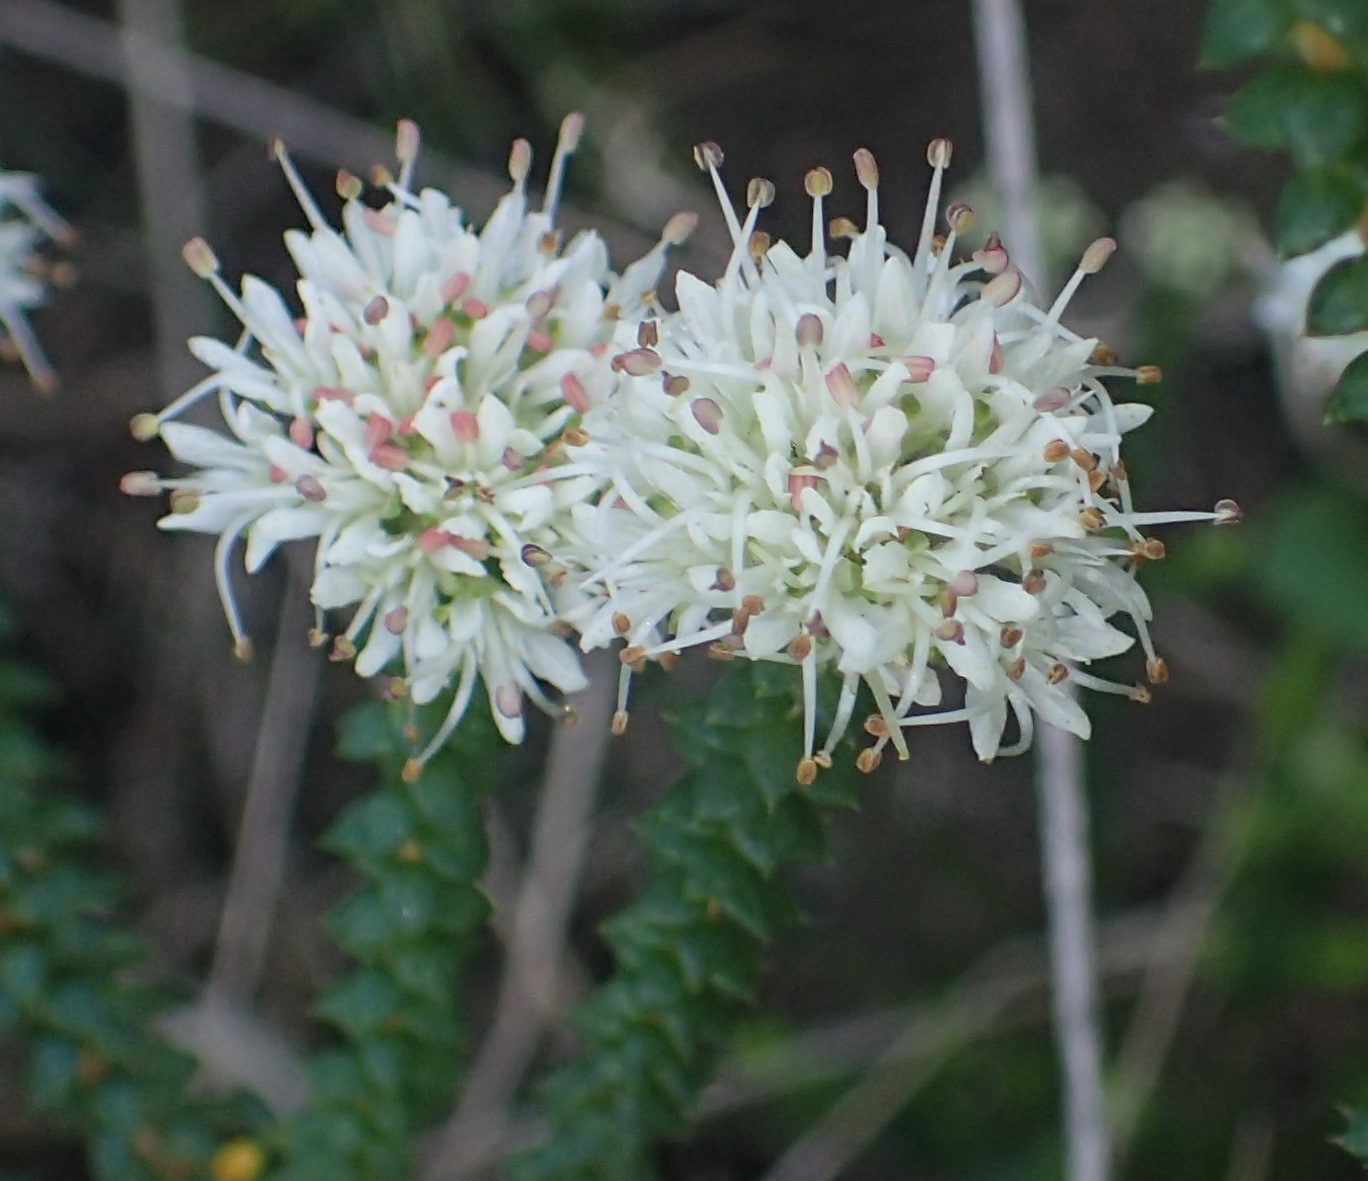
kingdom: Plantae
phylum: Tracheophyta
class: Magnoliopsida
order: Sapindales
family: Rutaceae
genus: Agathosma
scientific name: Agathosma apiculata
